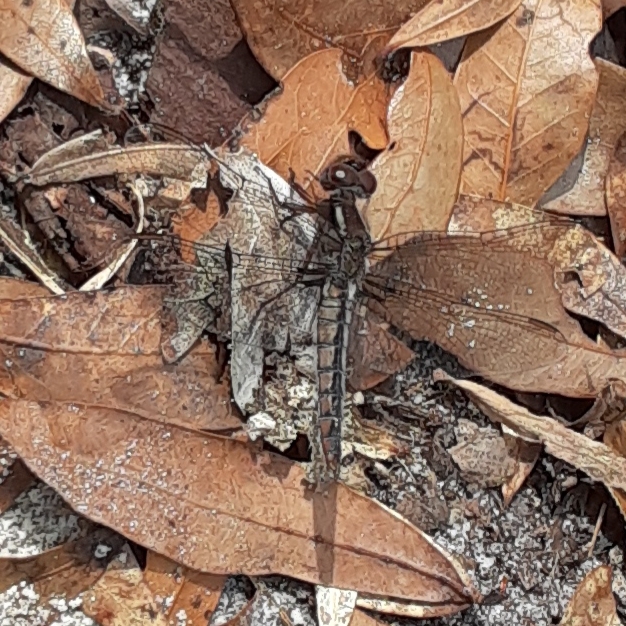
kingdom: Animalia
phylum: Arthropoda
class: Insecta
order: Odonata
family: Libellulidae
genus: Ladona
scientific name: Ladona deplanata
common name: Blue corporal
